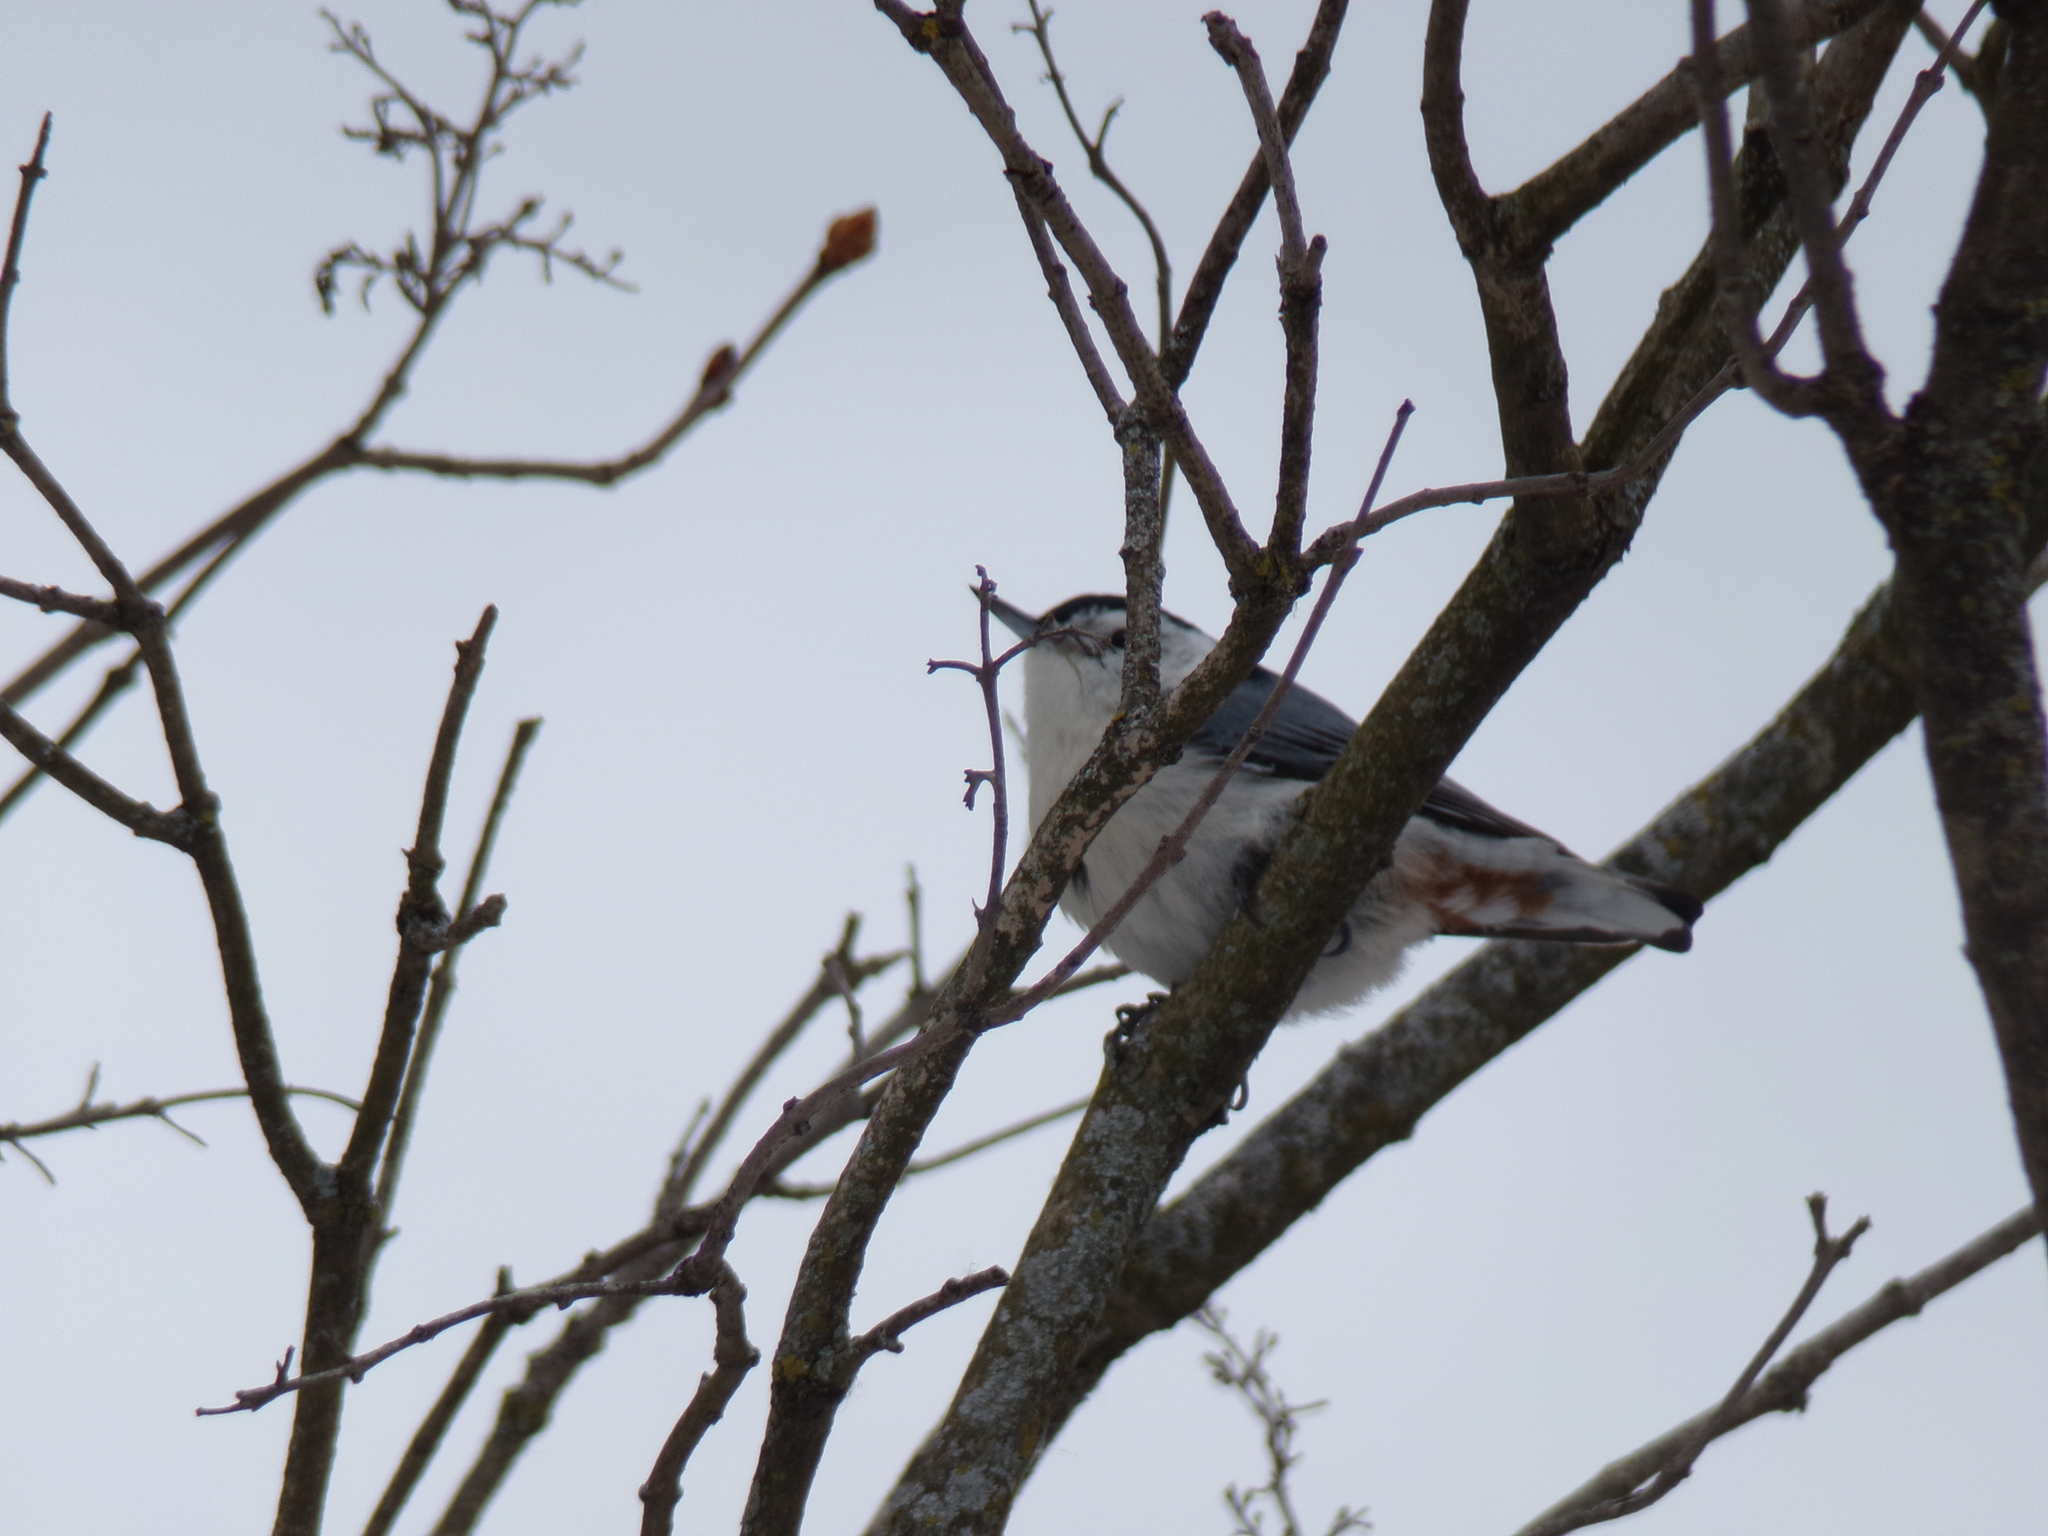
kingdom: Animalia
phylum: Chordata
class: Aves
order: Passeriformes
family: Sittidae
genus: Sitta
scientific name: Sitta carolinensis
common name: White-breasted nuthatch
